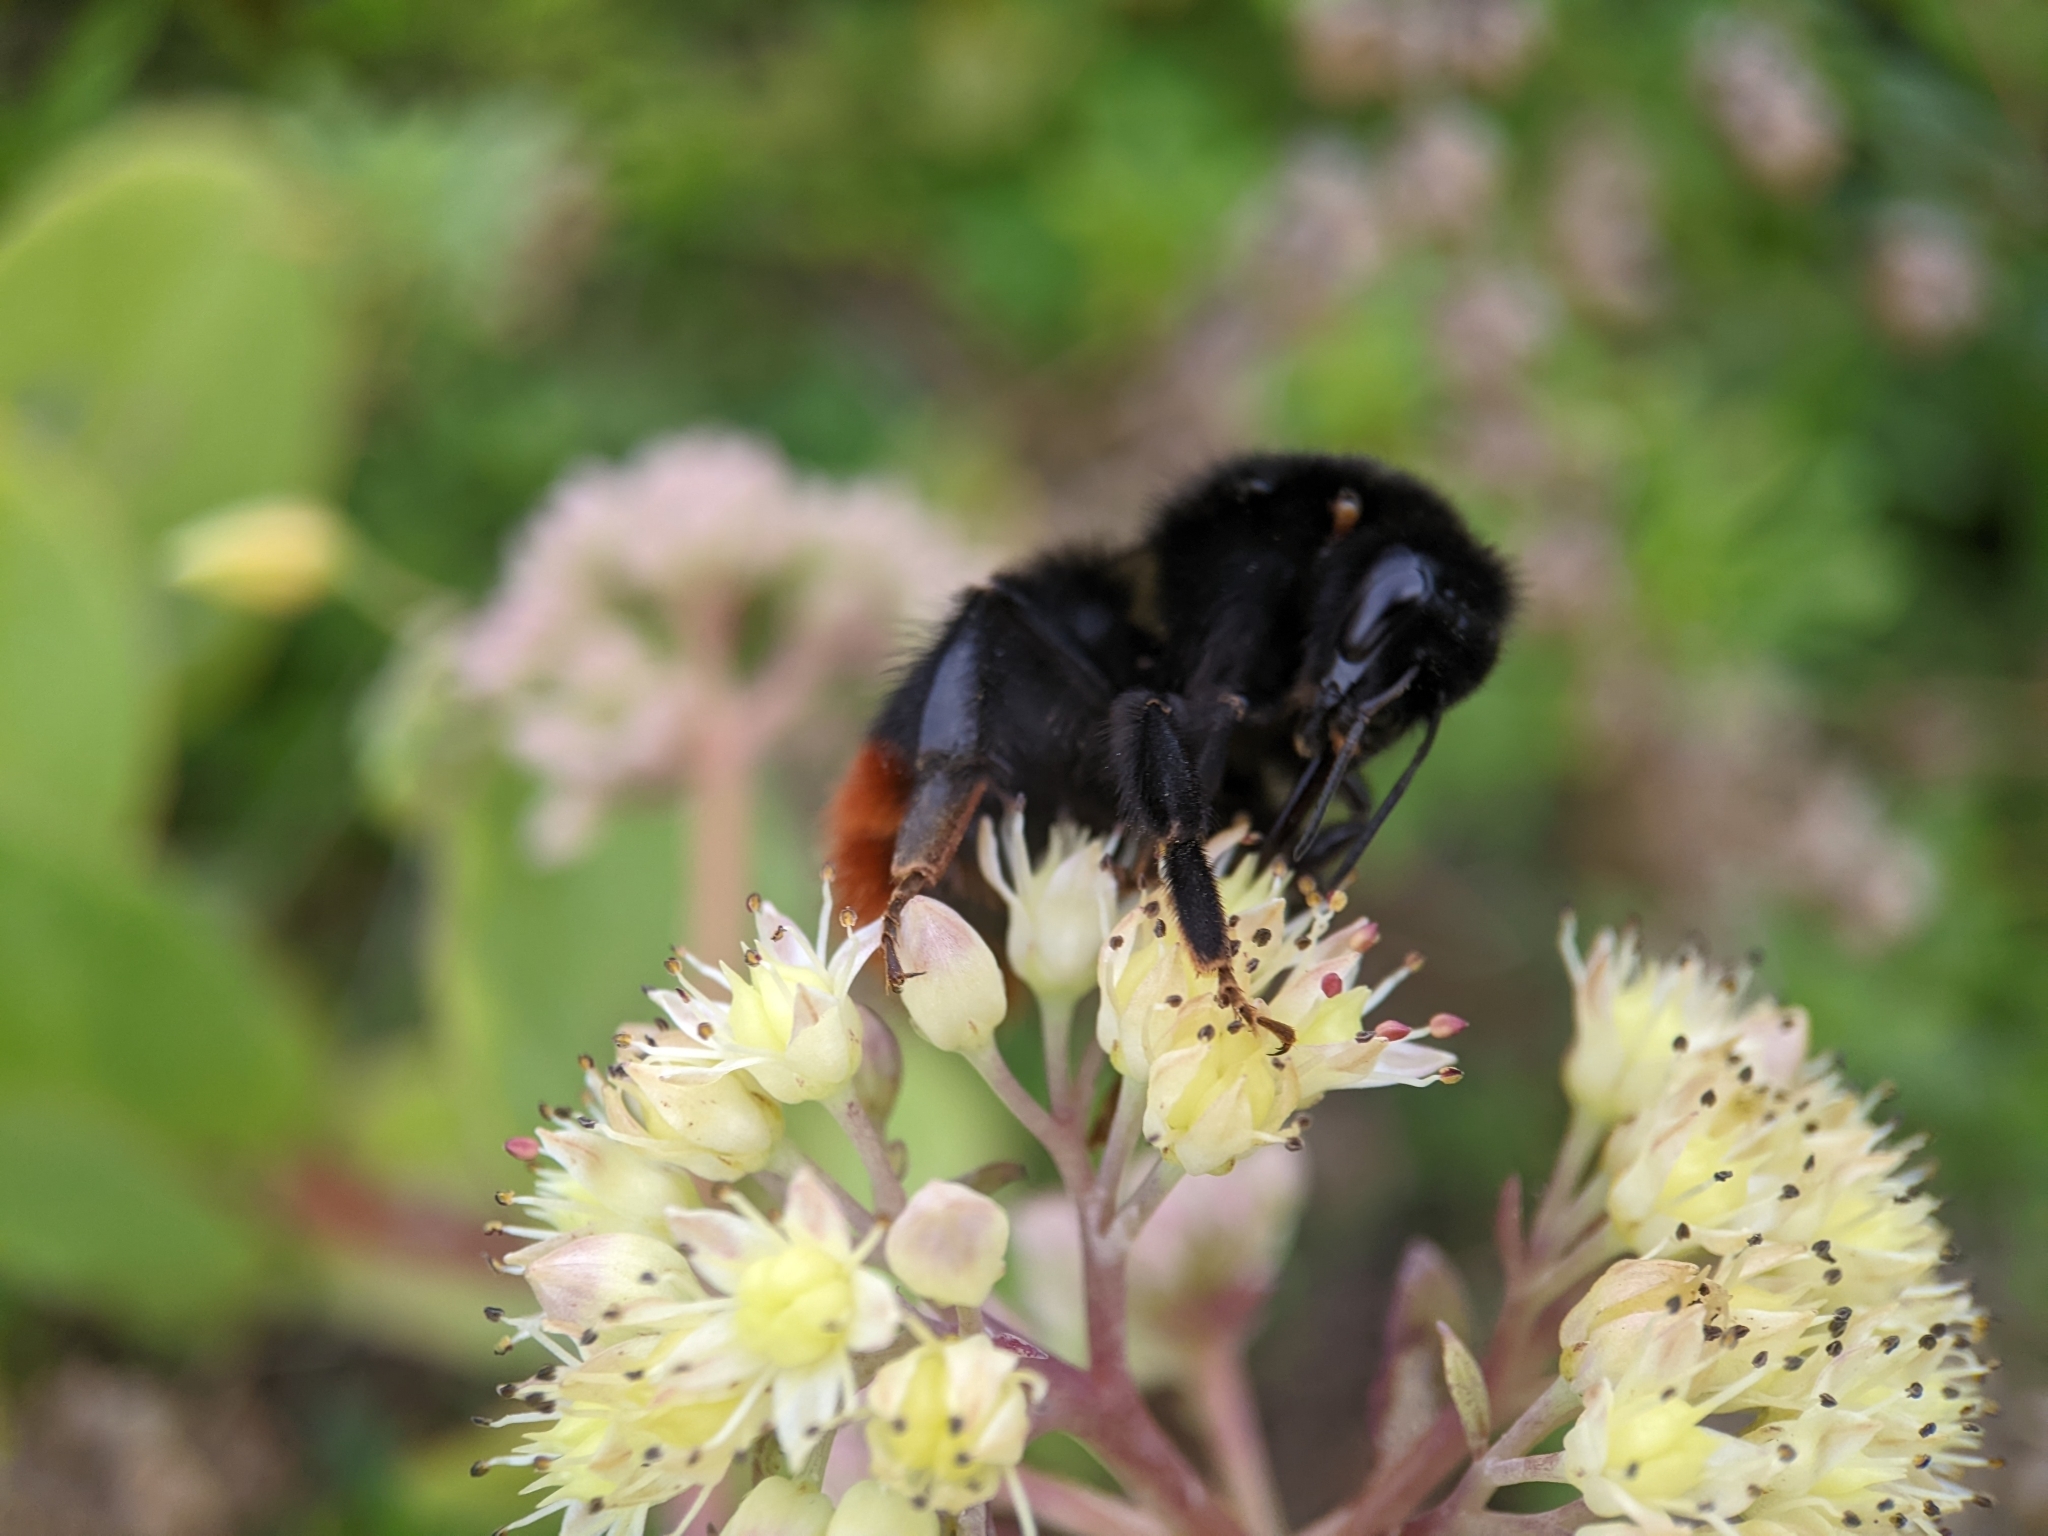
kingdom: Animalia
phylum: Arthropoda
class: Insecta
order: Hymenoptera
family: Apidae
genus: Bombus
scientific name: Bombus lapidarius
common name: Large red-tailed humble-bee
